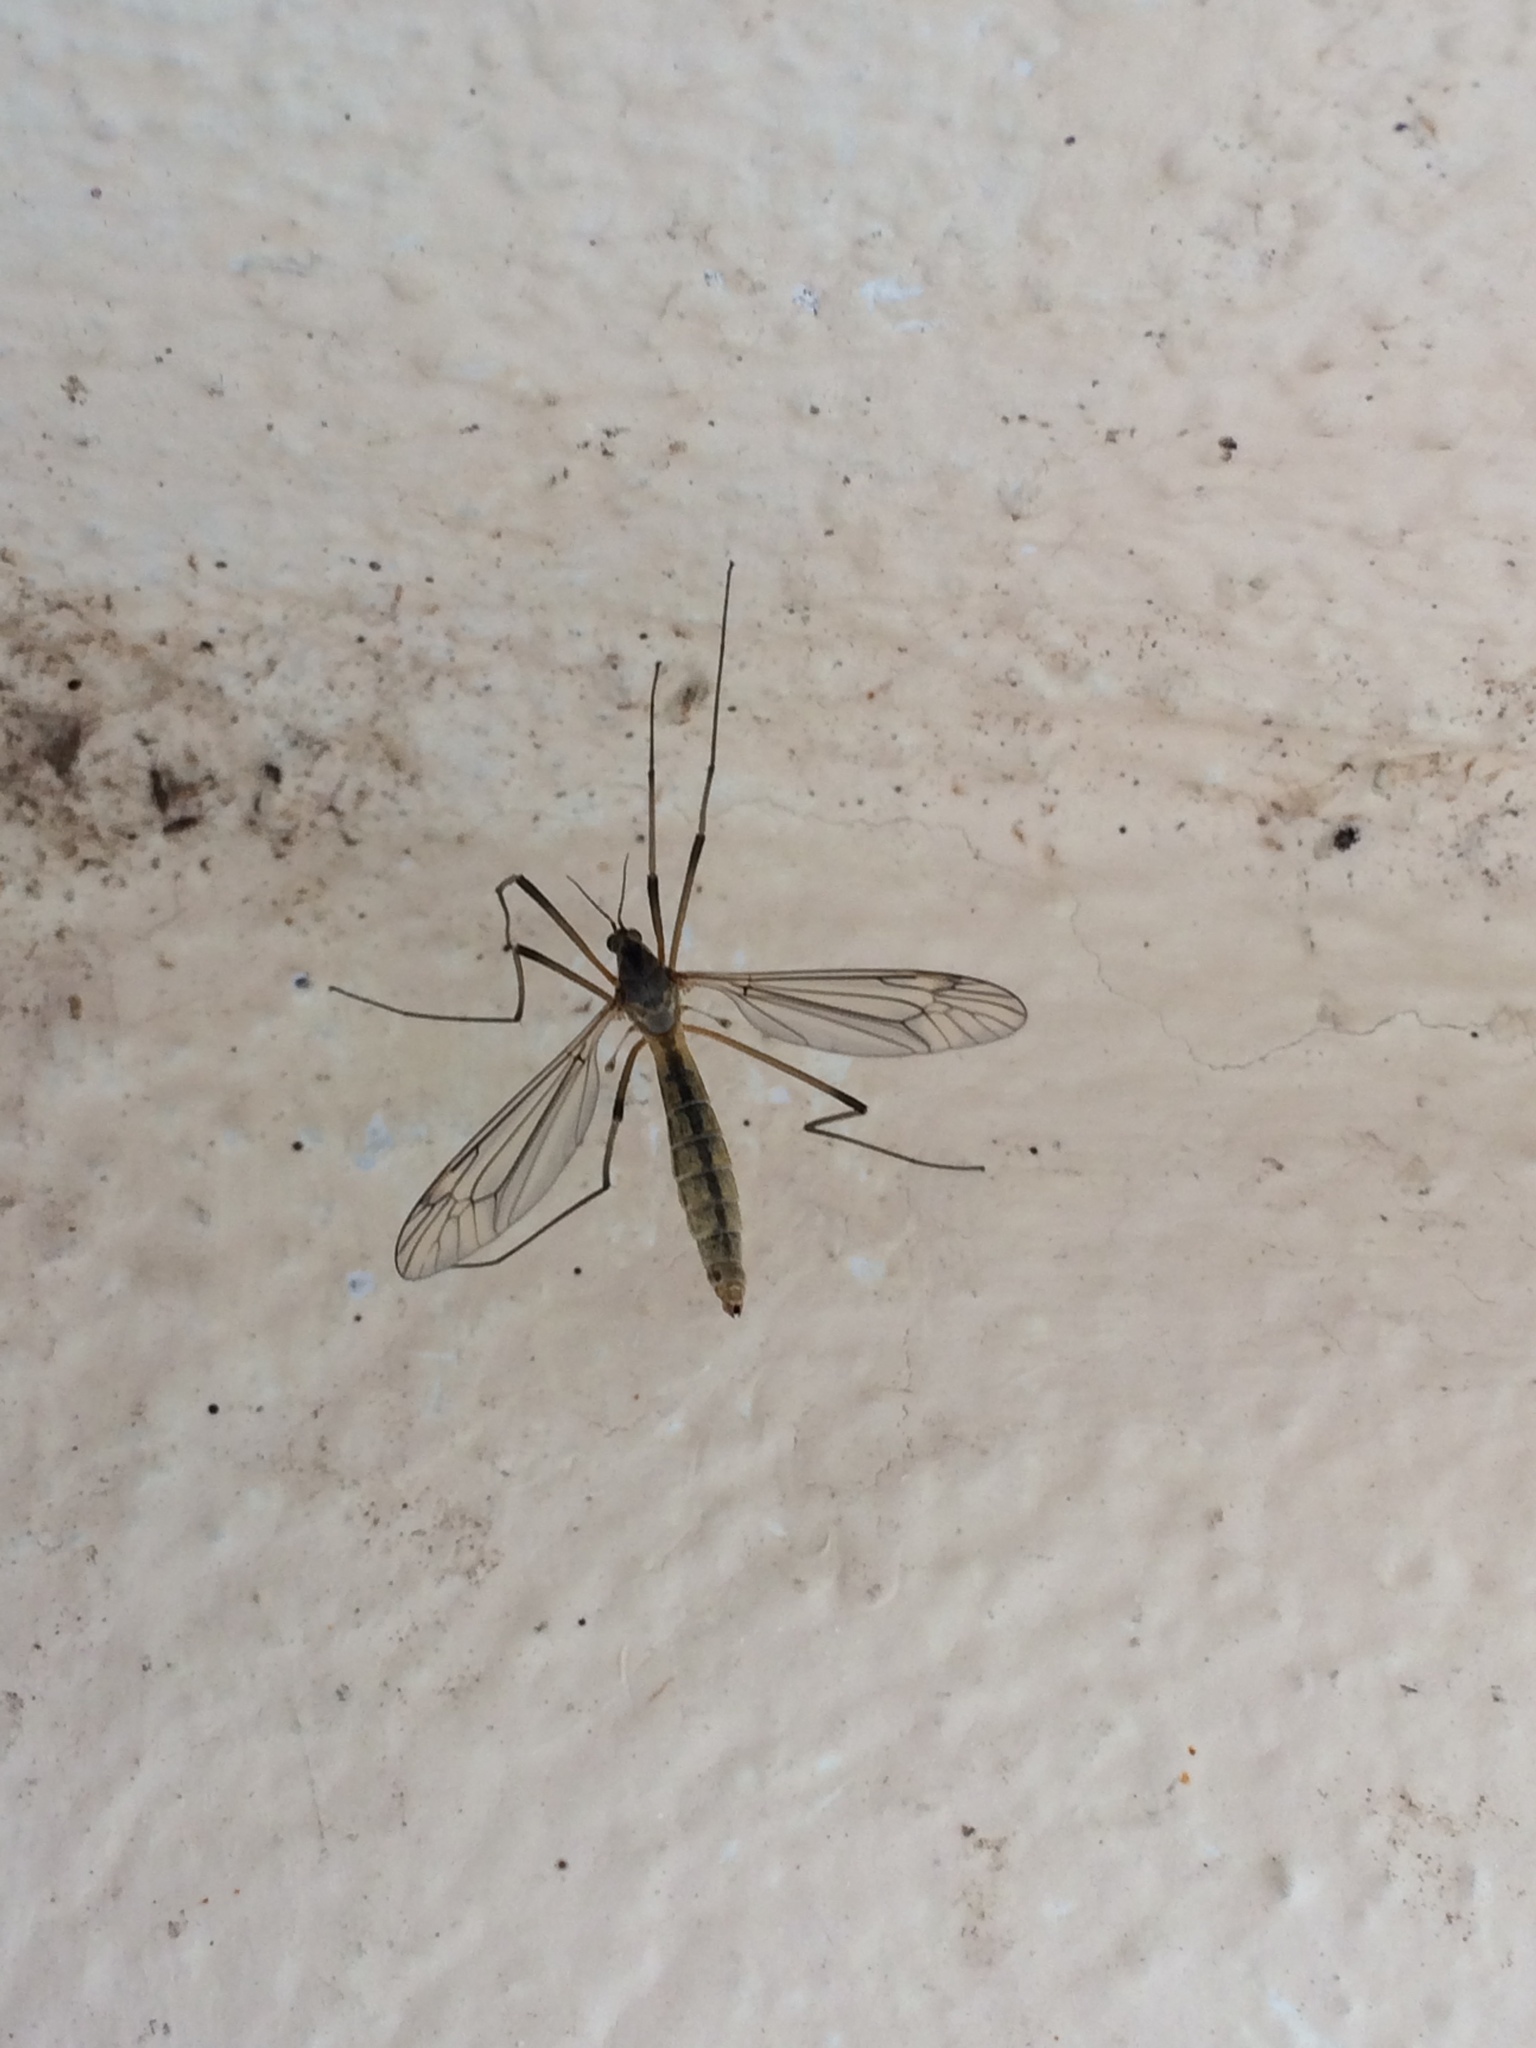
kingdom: Animalia
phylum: Arthropoda
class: Insecta
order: Diptera
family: Tipulidae
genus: Tipula
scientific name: Tipula vernalis
